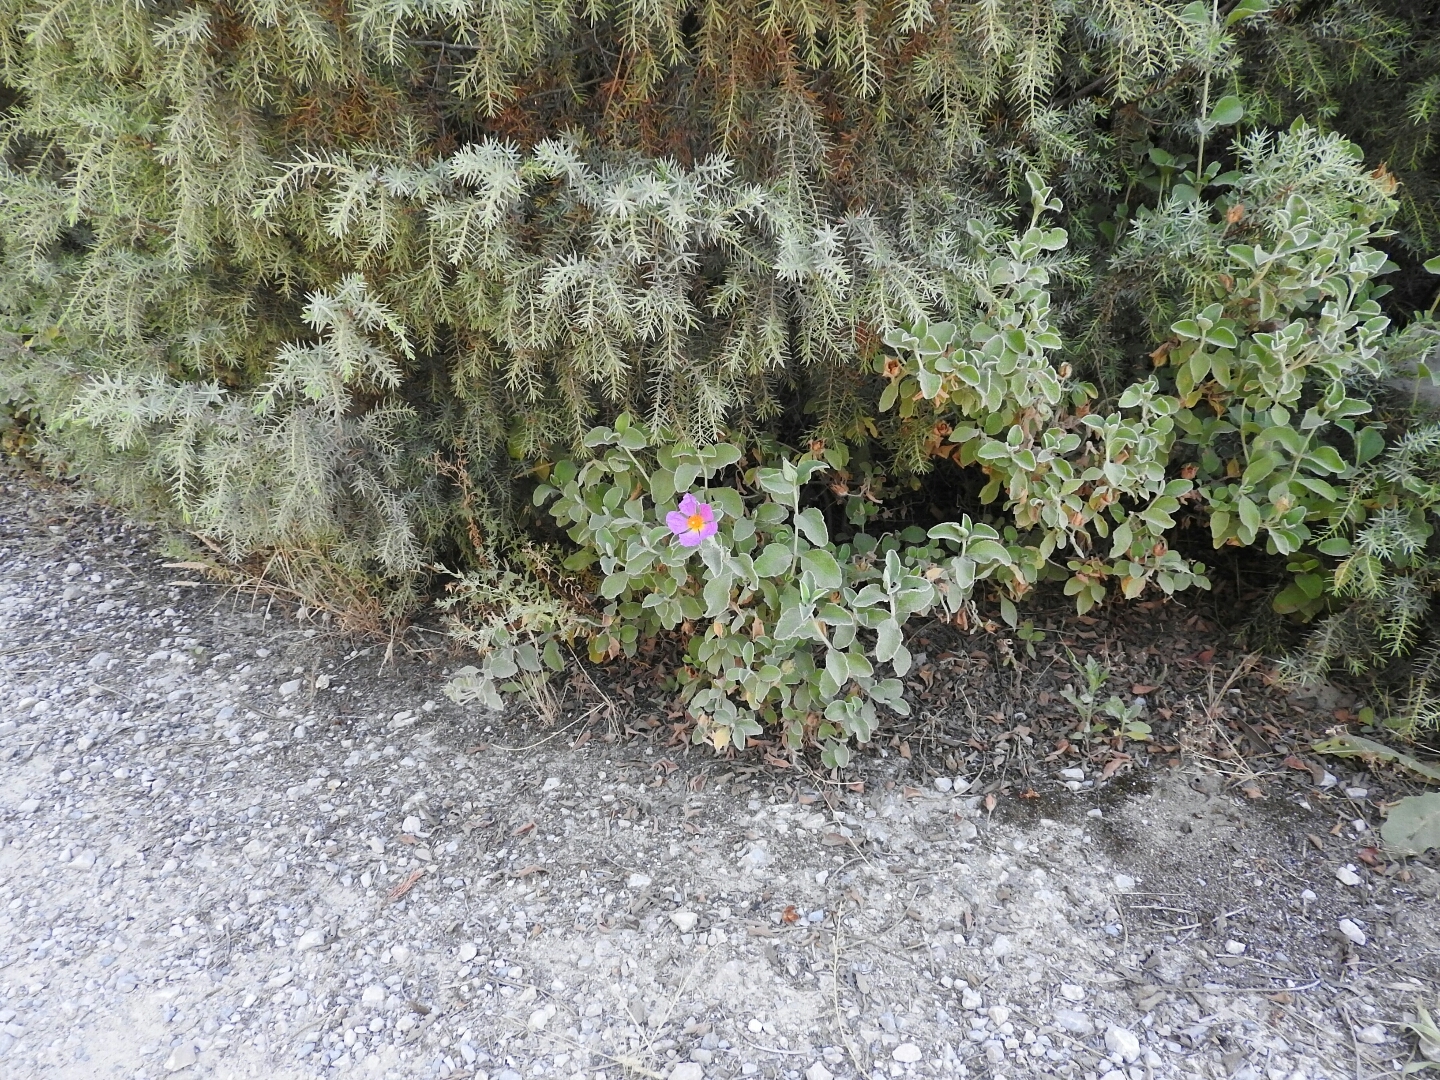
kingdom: Plantae
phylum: Tracheophyta
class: Magnoliopsida
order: Malvales
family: Cistaceae
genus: Cistus
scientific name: Cistus tauricus
